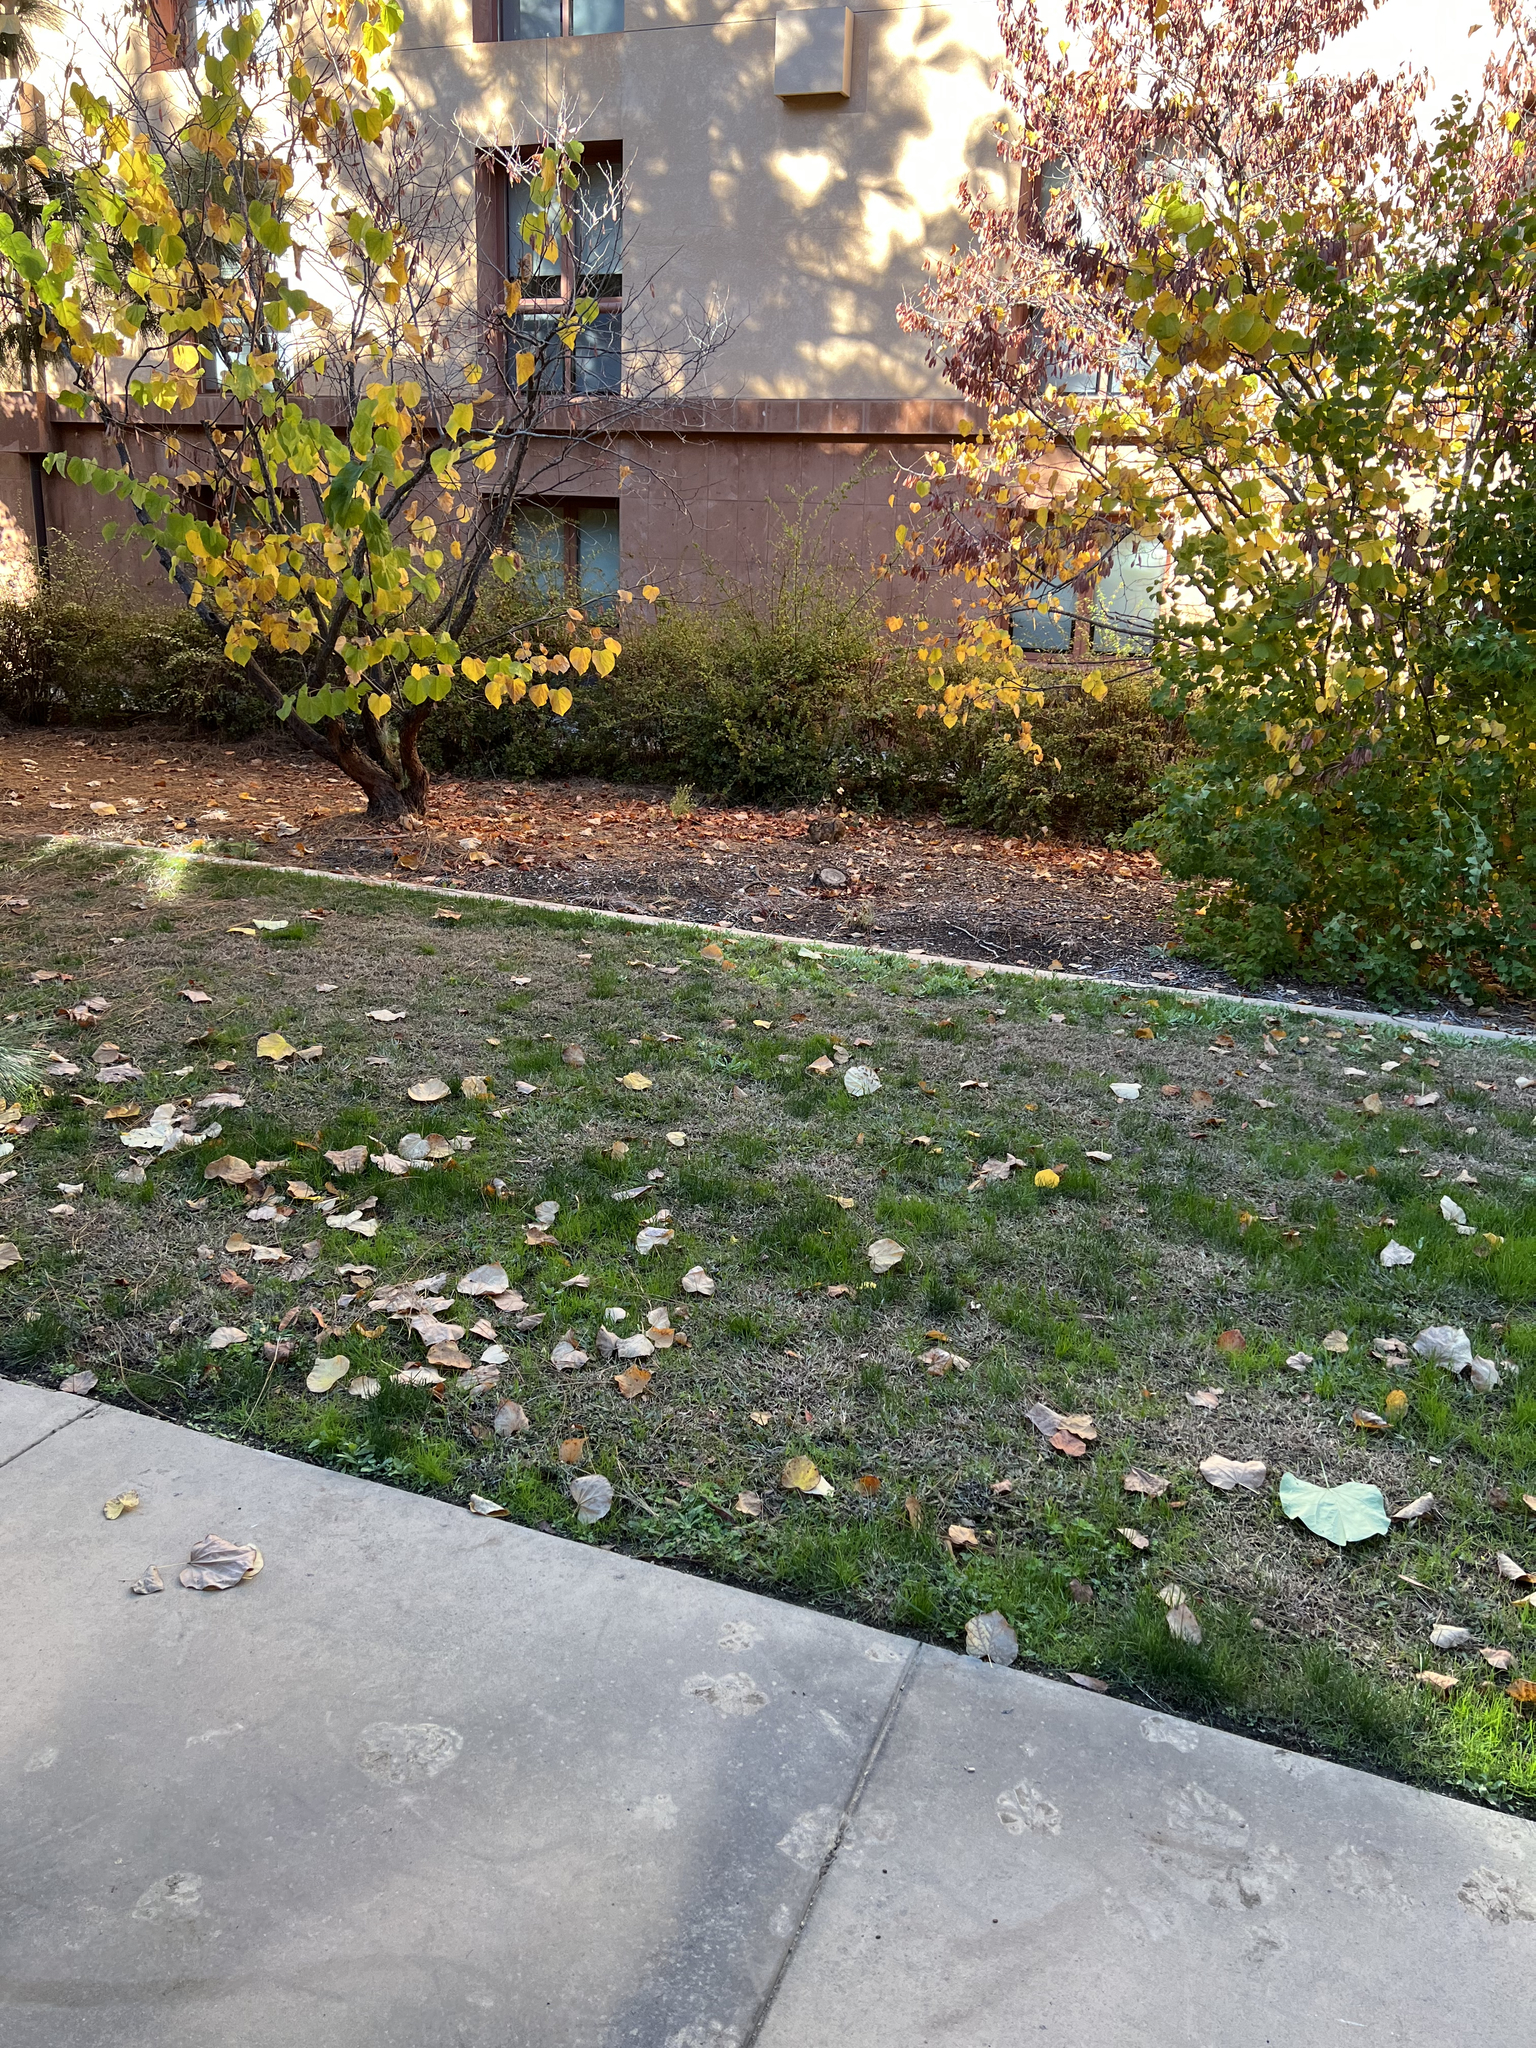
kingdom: Animalia
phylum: Chordata
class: Mammalia
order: Lagomorpha
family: Leporidae
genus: Lepus
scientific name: Lepus californicus
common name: Black-tailed jackrabbit
